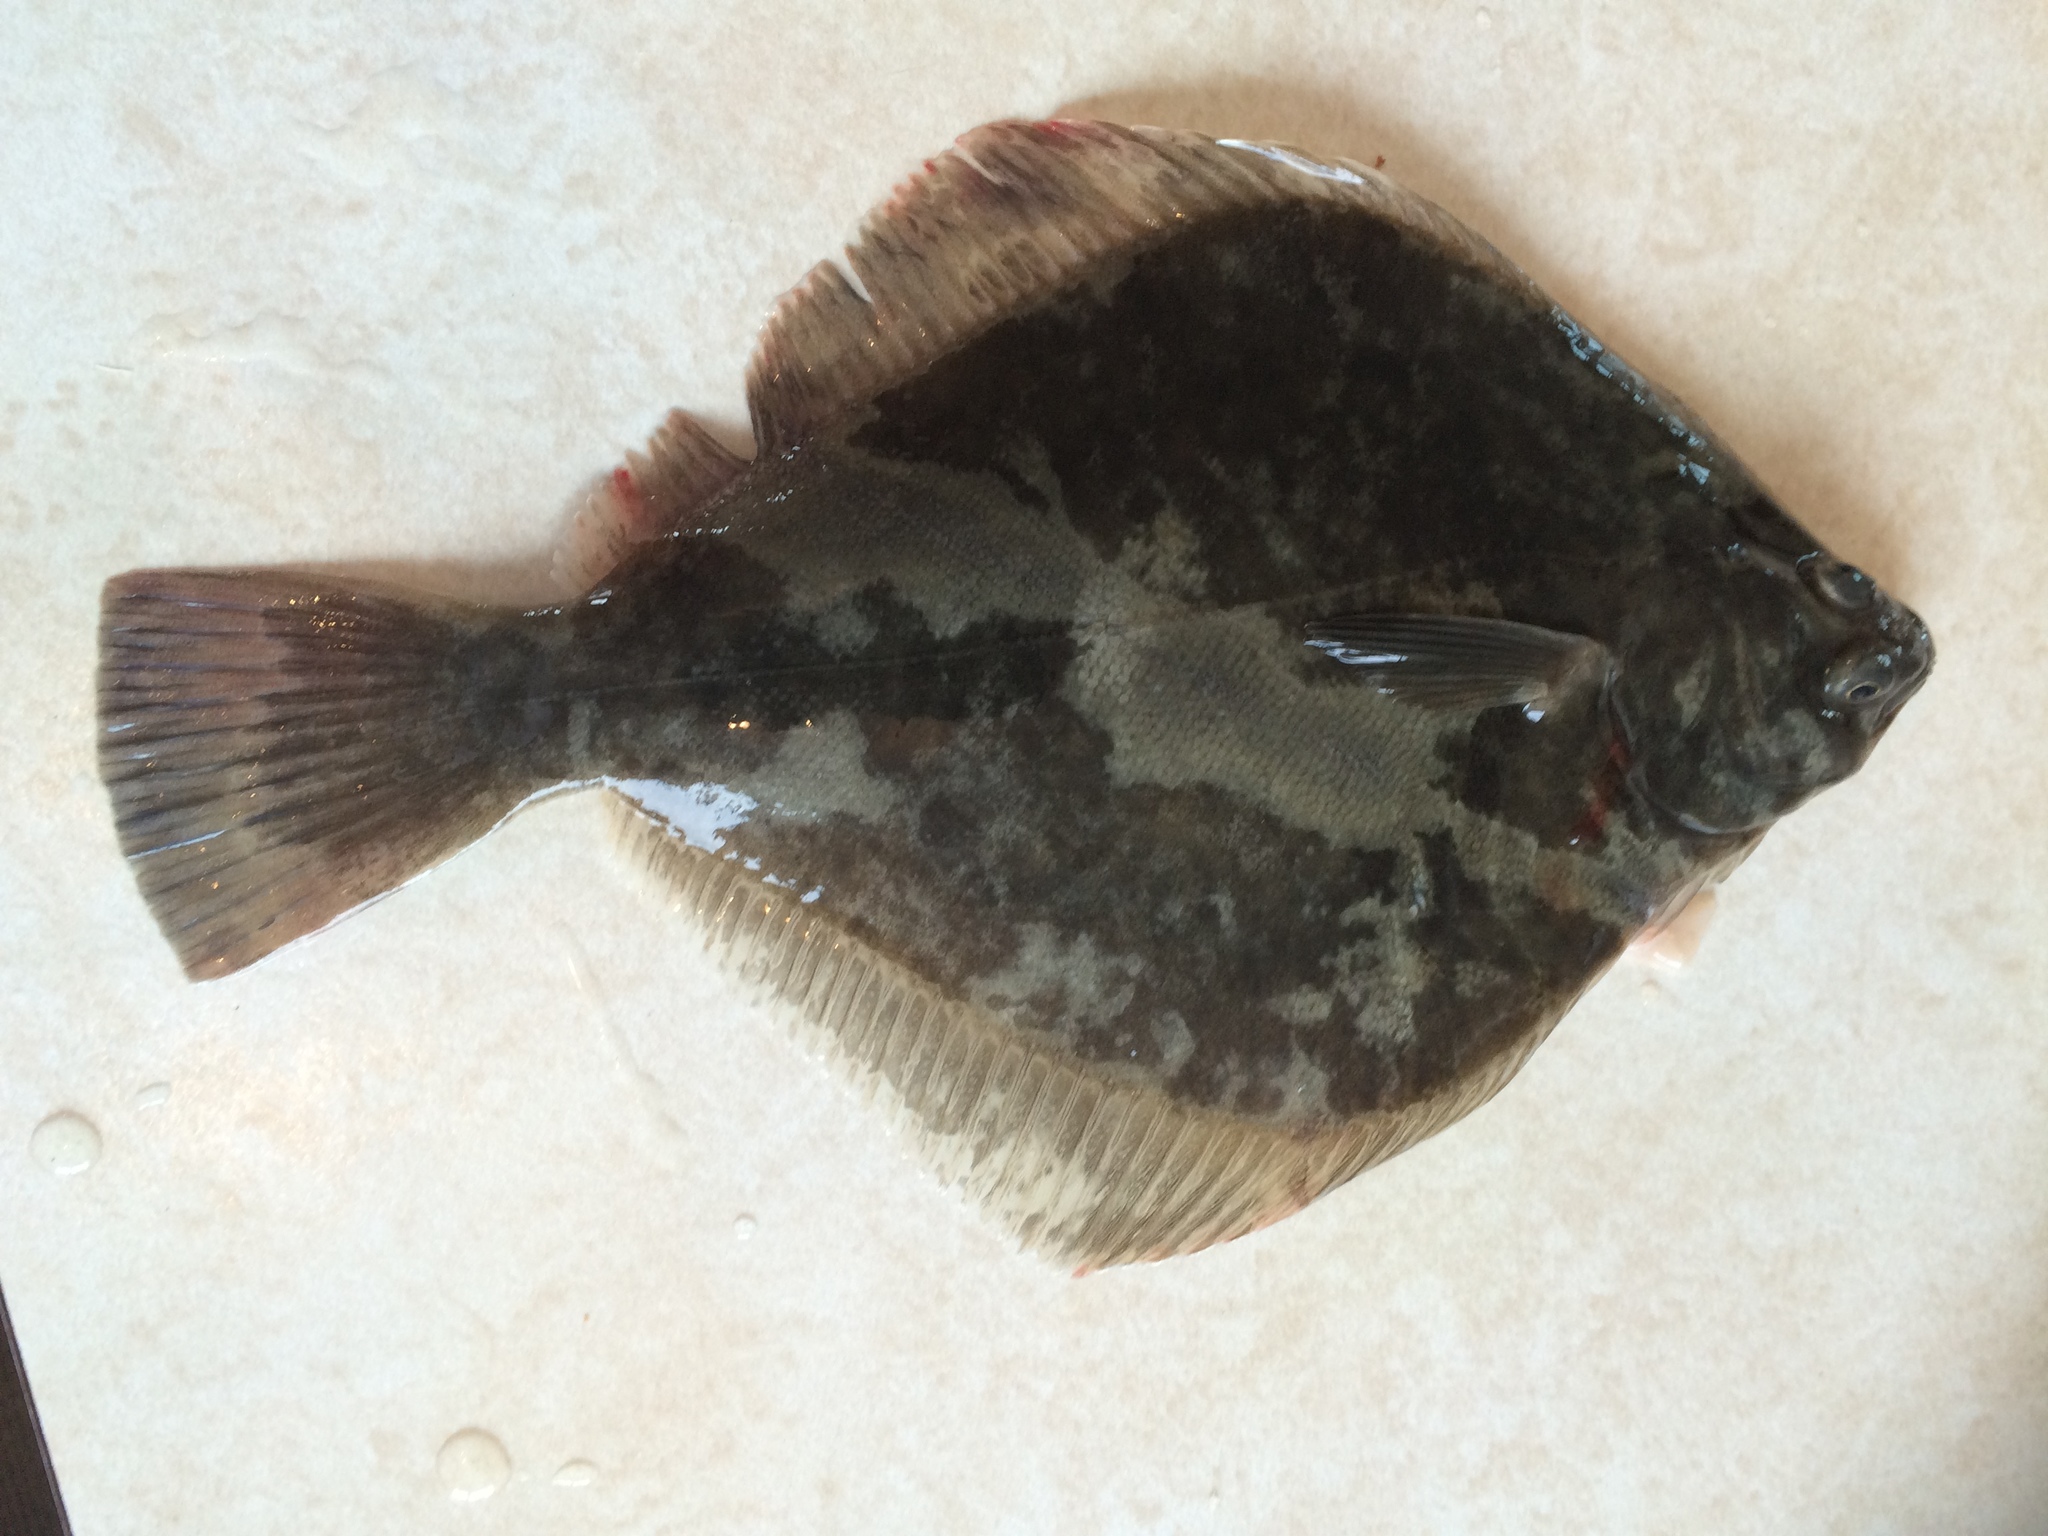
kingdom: Animalia
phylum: Chordata
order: Pleuronectiformes
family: Pleuronectidae
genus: Rhombosolea
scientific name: Rhombosolea plebeia
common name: Dab
